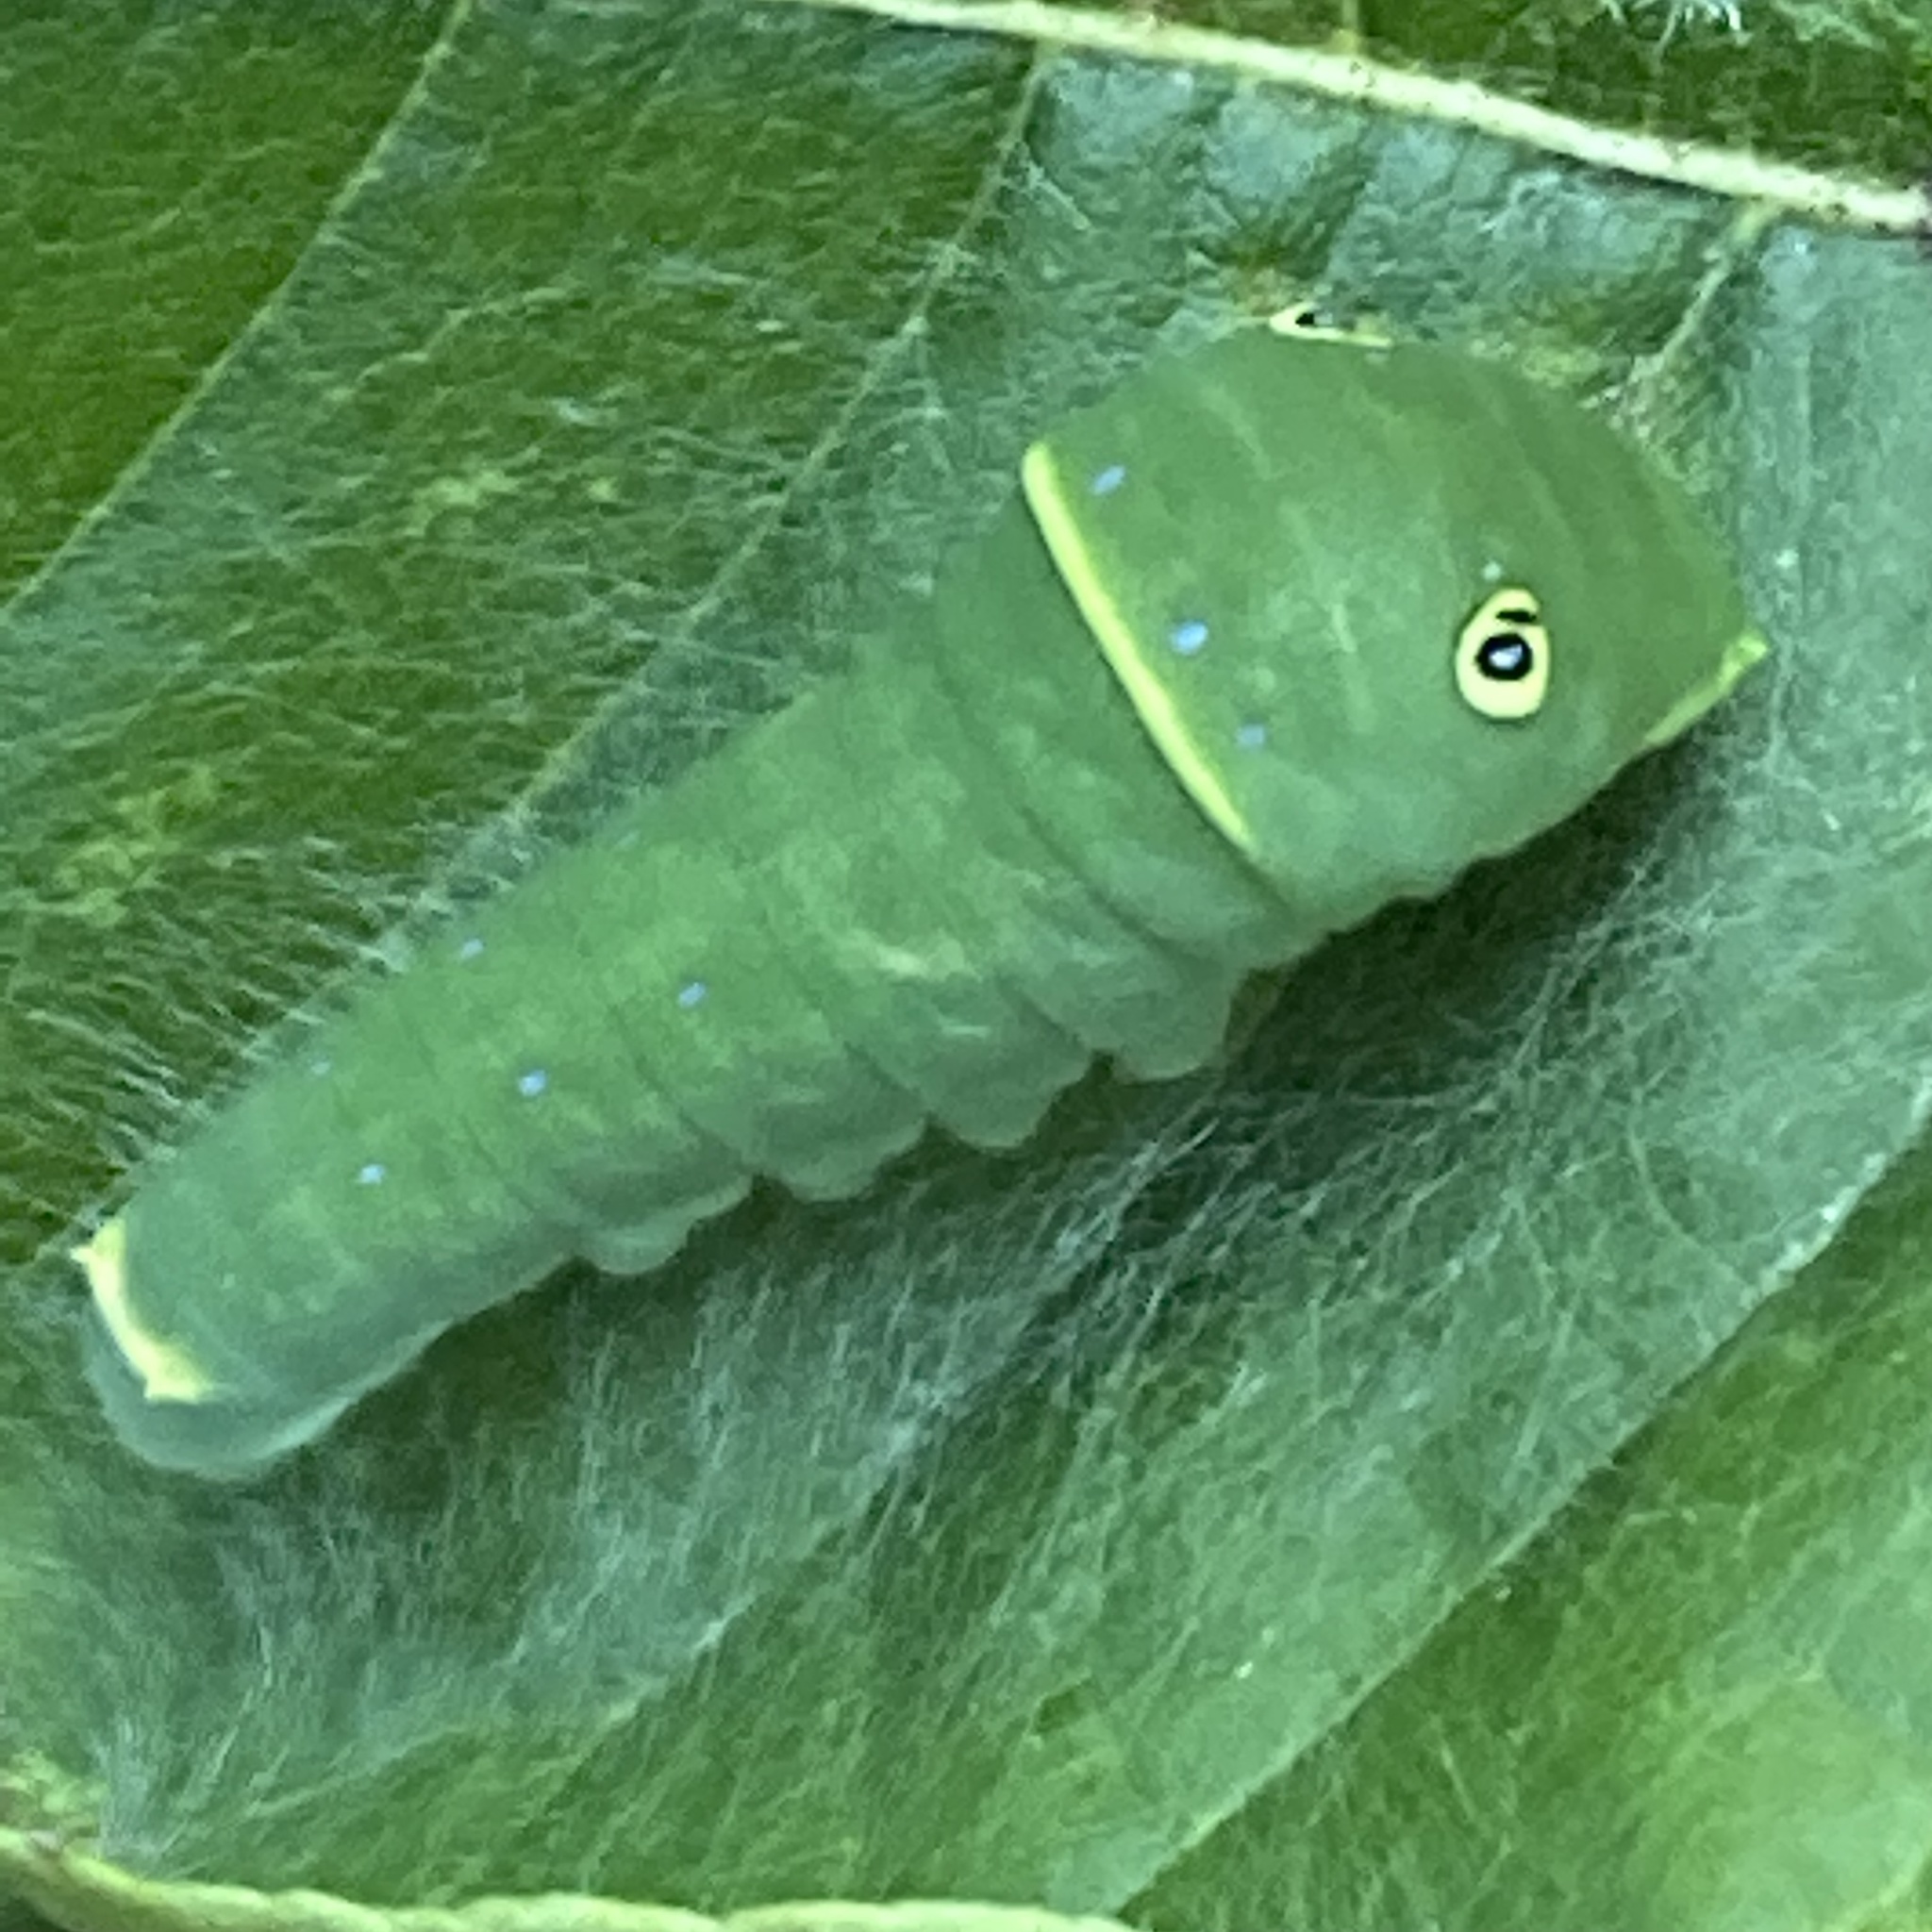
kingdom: Animalia
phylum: Arthropoda
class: Insecta
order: Lepidoptera
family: Papilionidae
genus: Papilio
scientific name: Papilio glaucus
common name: Tiger swallowtail
